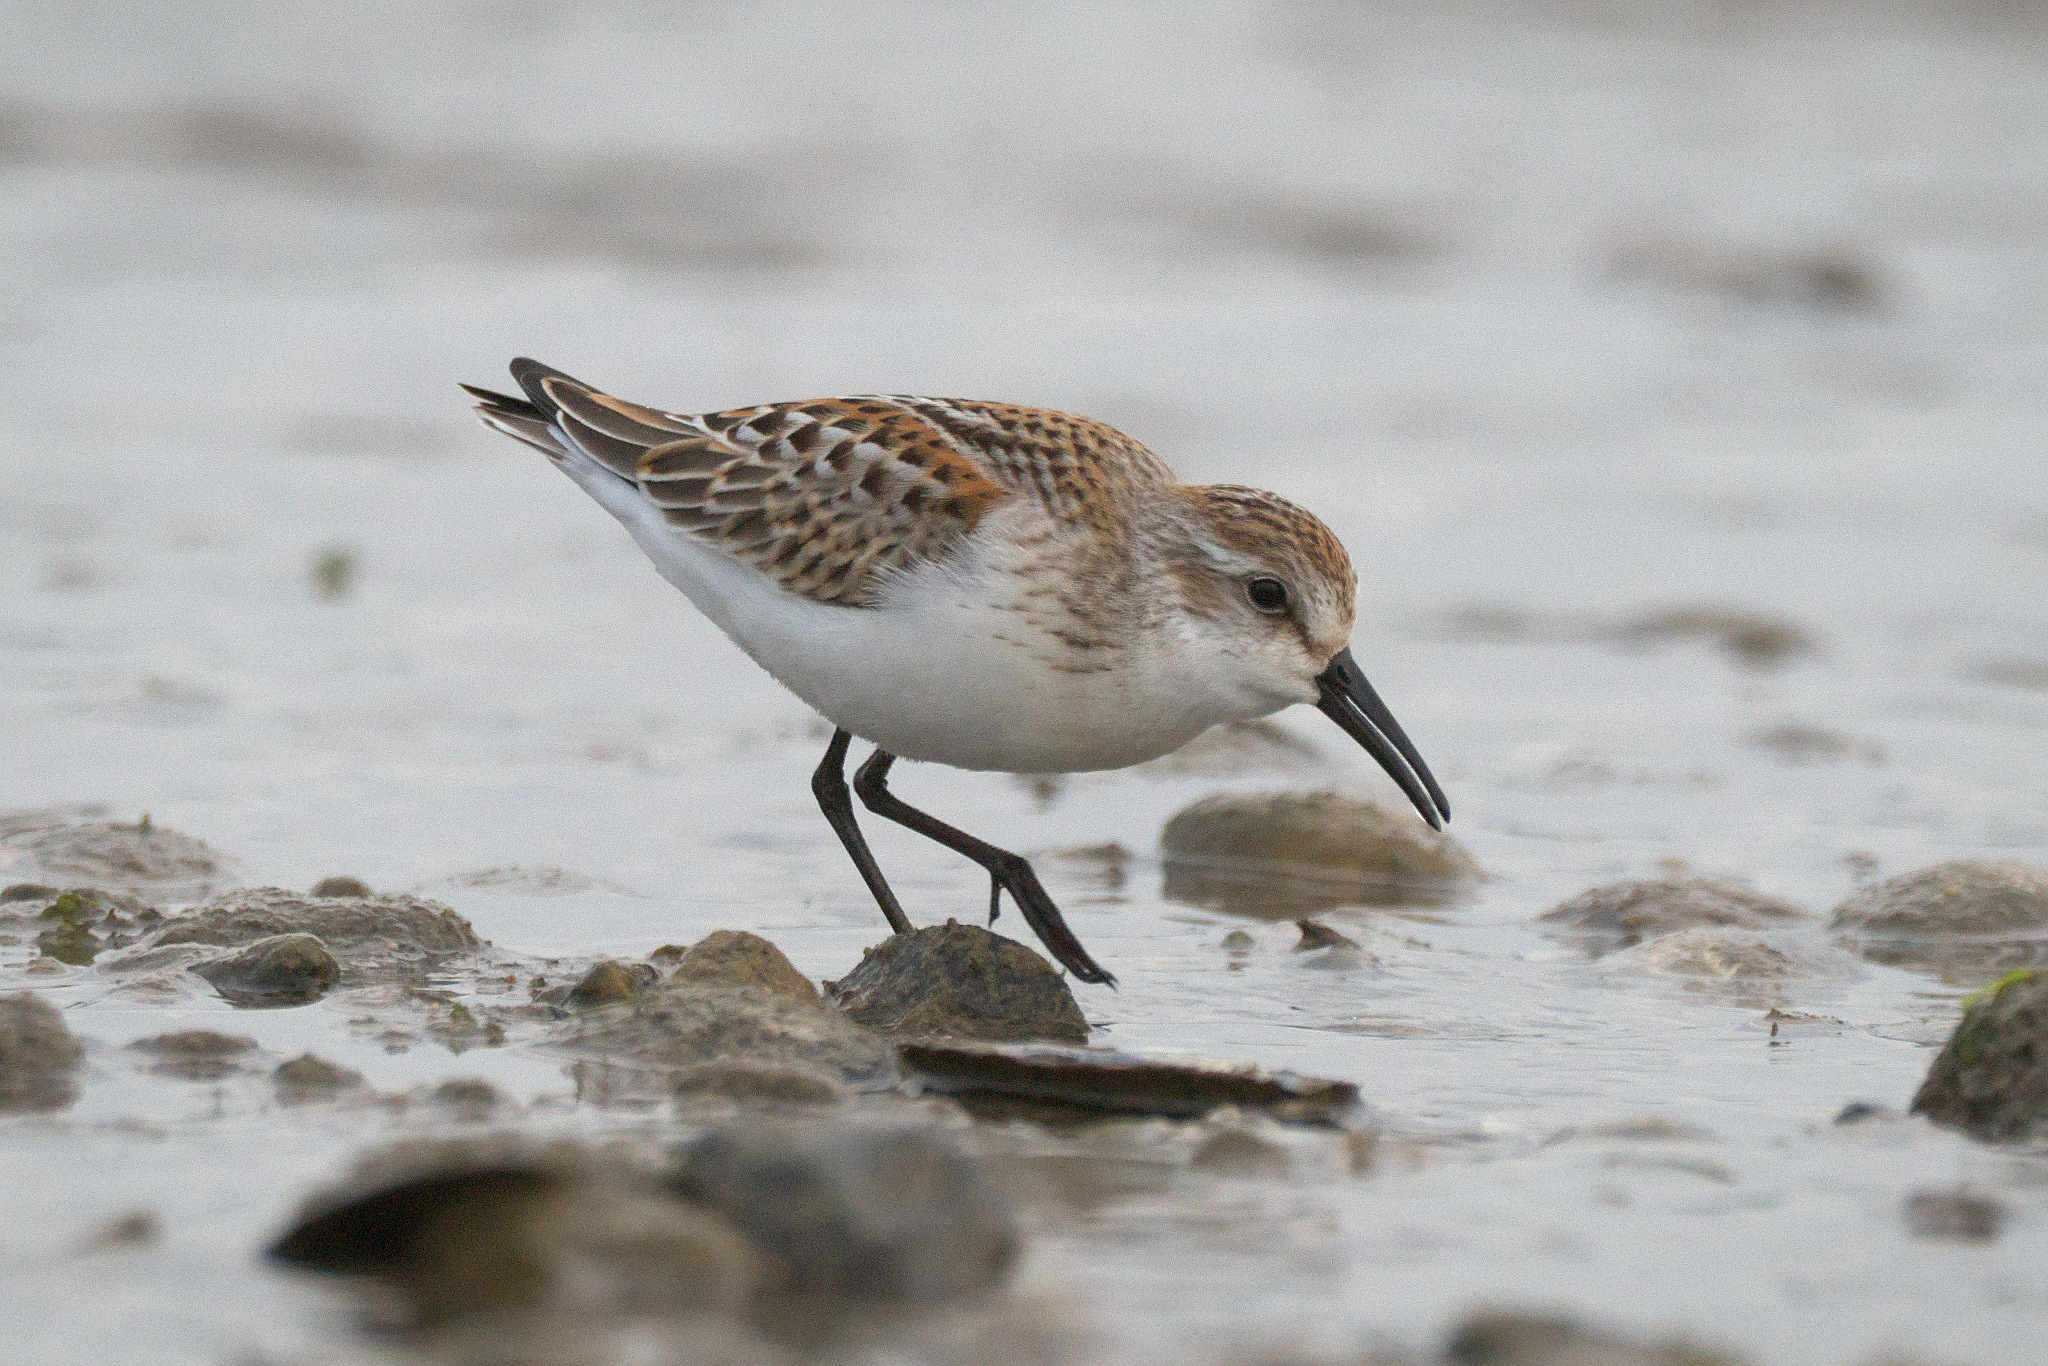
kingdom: Animalia
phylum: Chordata
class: Aves
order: Charadriiformes
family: Scolopacidae
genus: Calidris
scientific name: Calidris mauri
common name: Western sandpiper
